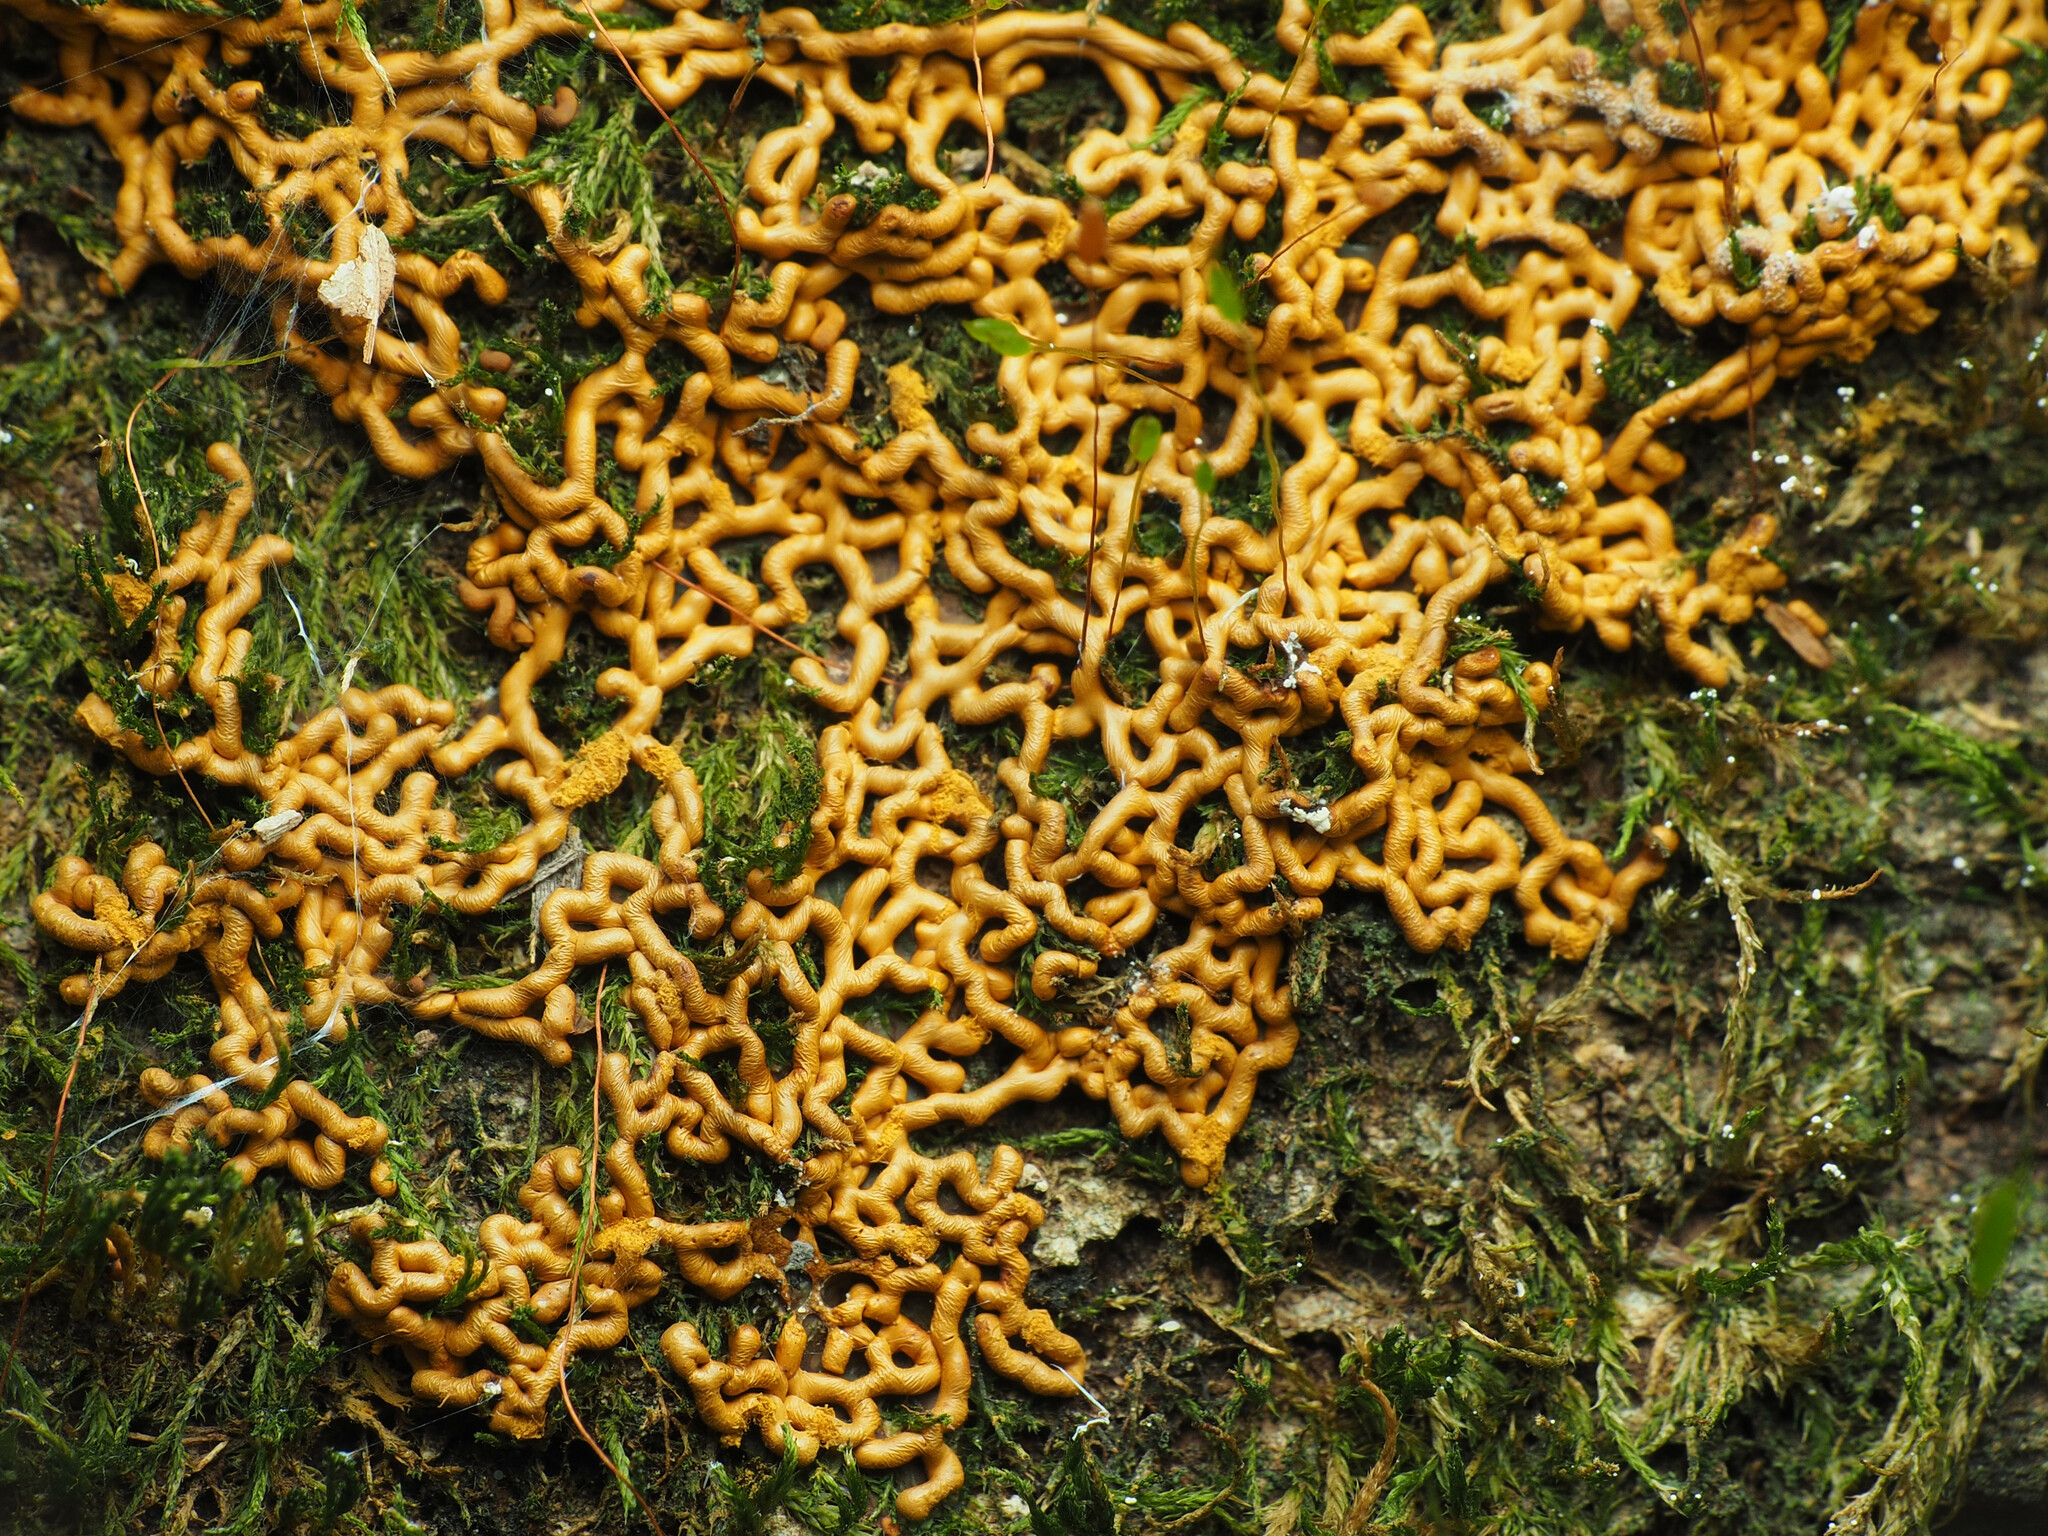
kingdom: Protozoa
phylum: Mycetozoa
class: Myxomycetes
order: Trichiales
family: Arcyriaceae
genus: Hemitrichia
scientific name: Hemitrichia serpula
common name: Pretzel slime mold
